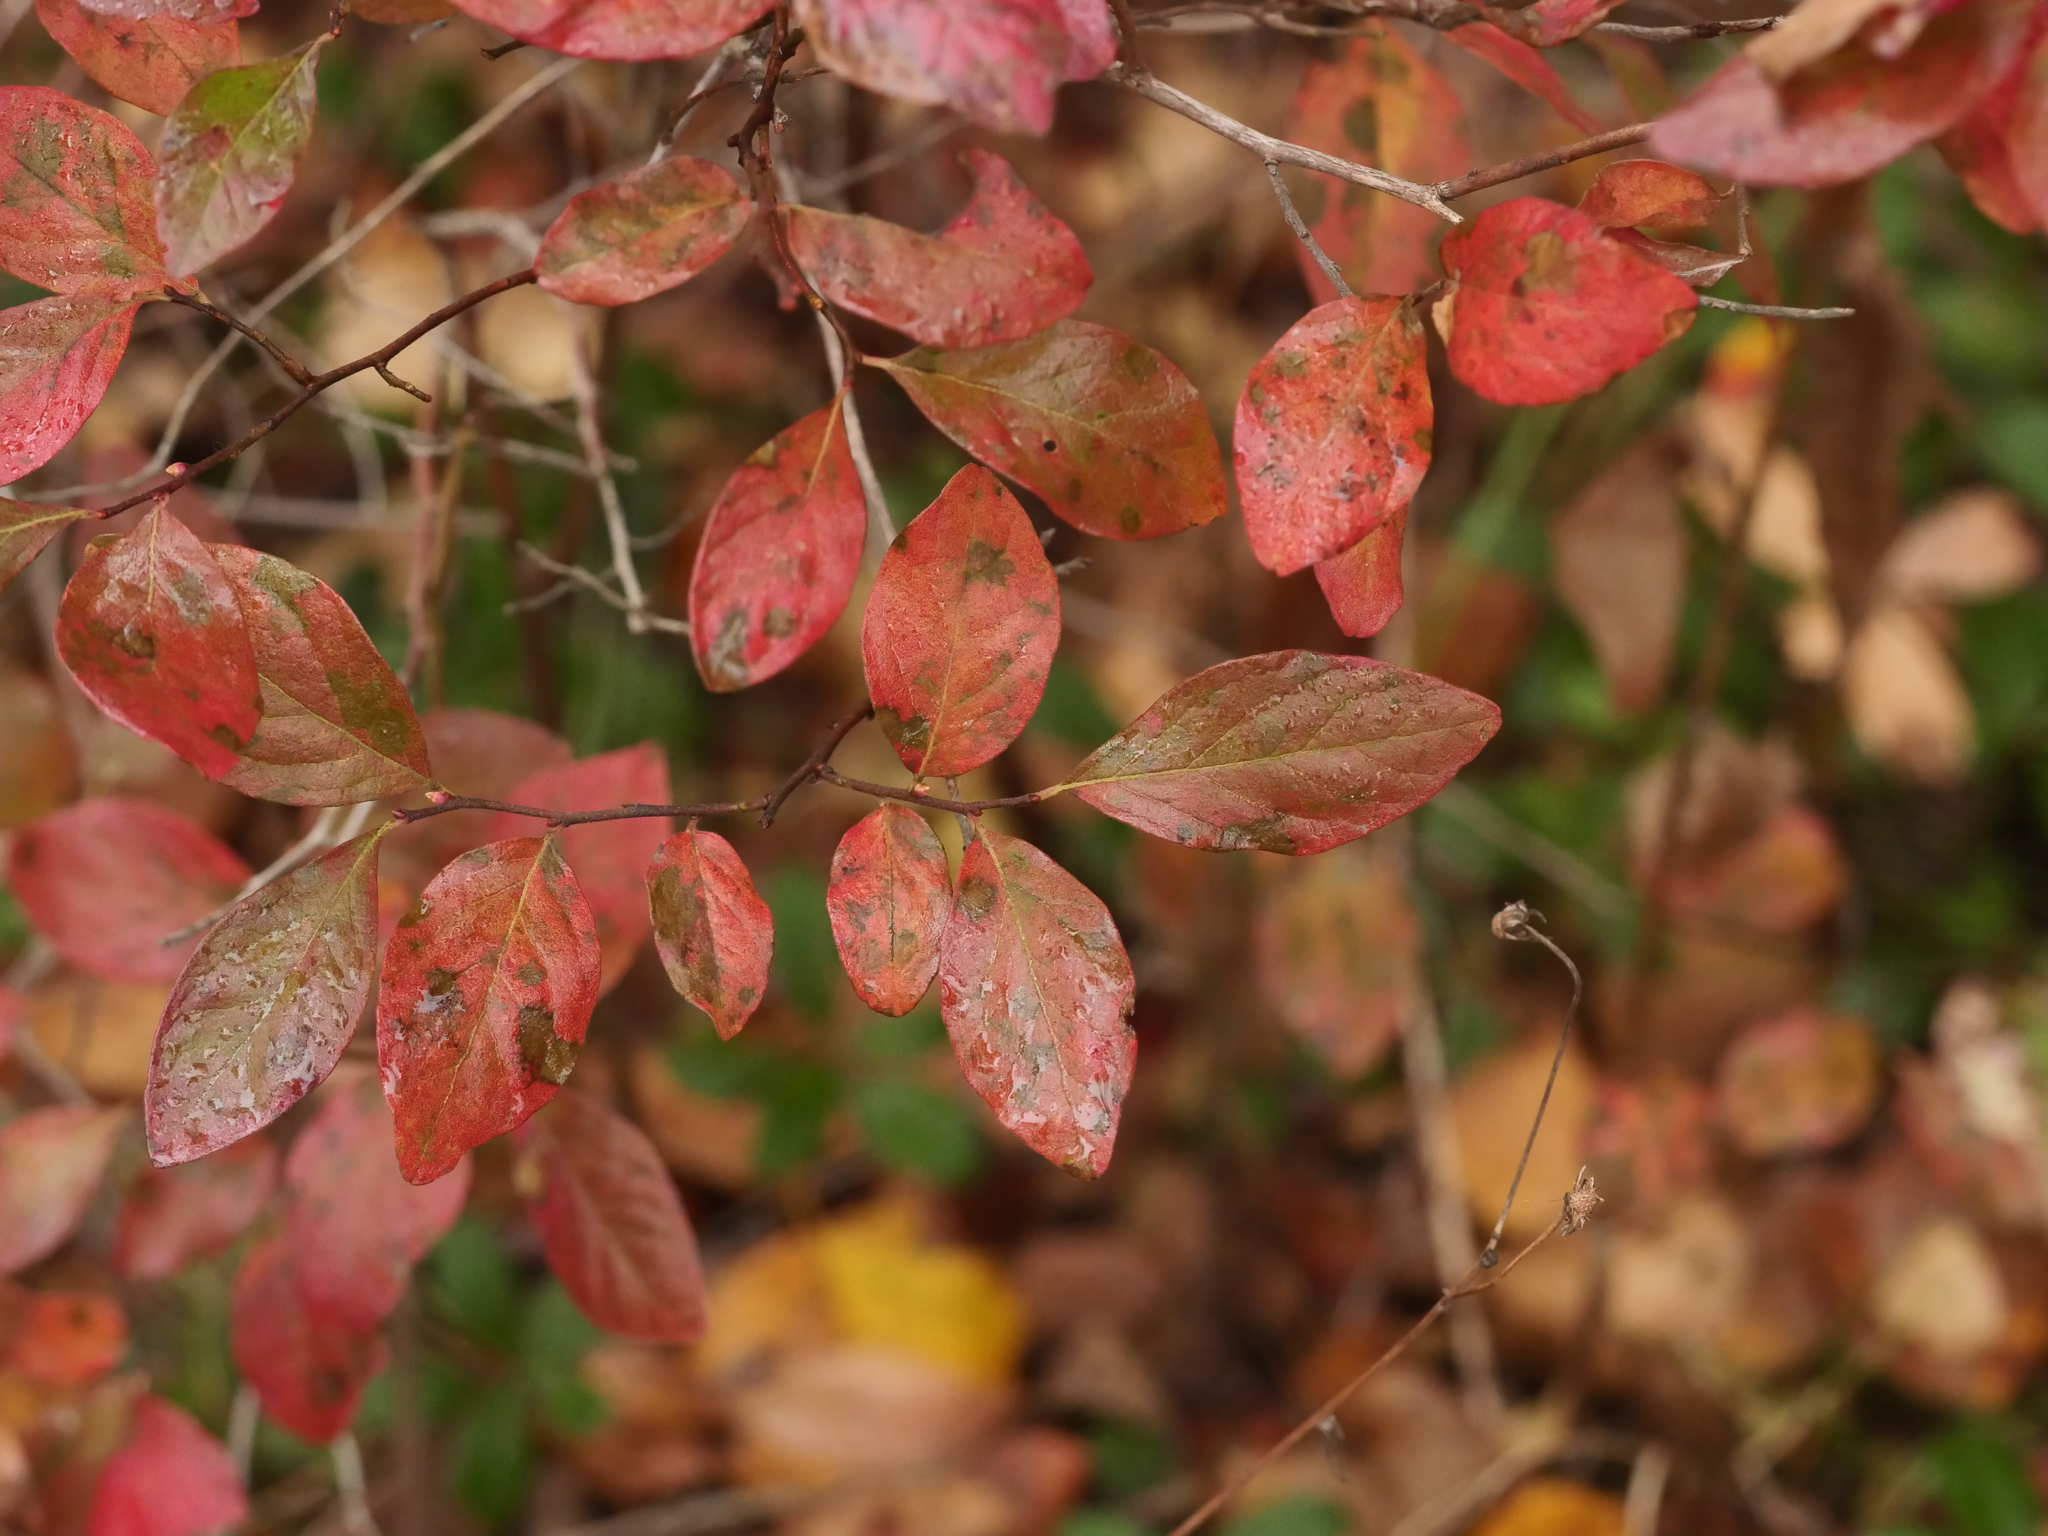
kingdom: Plantae
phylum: Tracheophyta
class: Magnoliopsida
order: Ericales
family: Ericaceae
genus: Gaylussacia
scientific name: Gaylussacia baccata
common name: Black huckleberry
